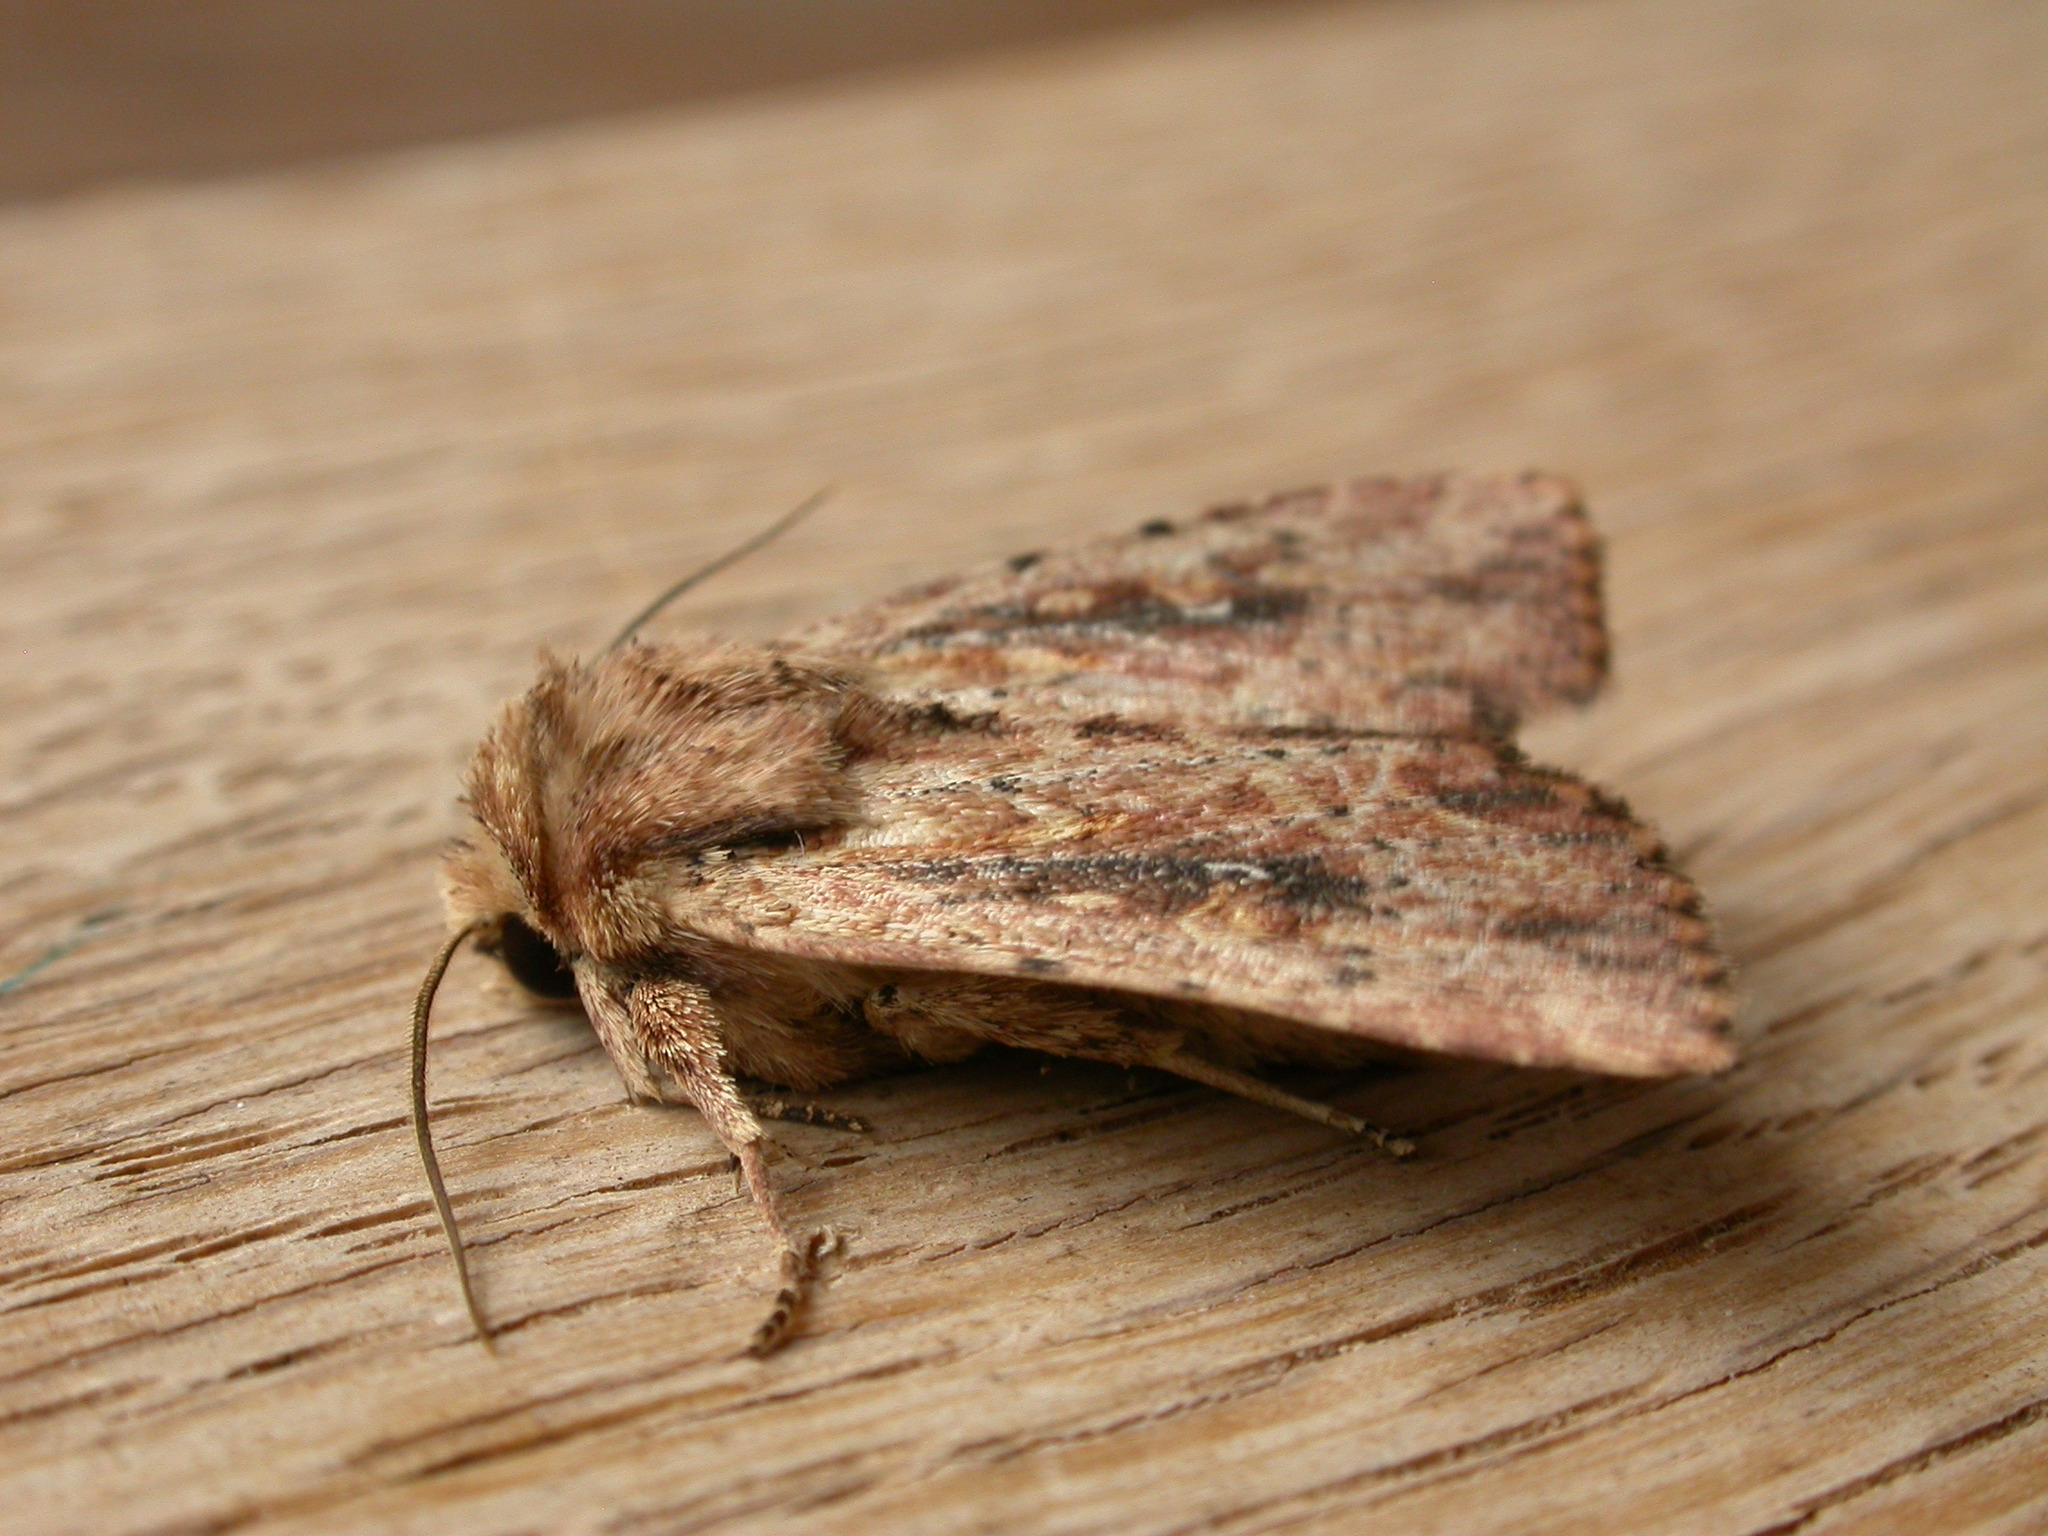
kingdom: Animalia
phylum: Arthropoda
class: Insecta
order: Lepidoptera
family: Noctuidae
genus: Dasygaster
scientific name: Dasygaster
